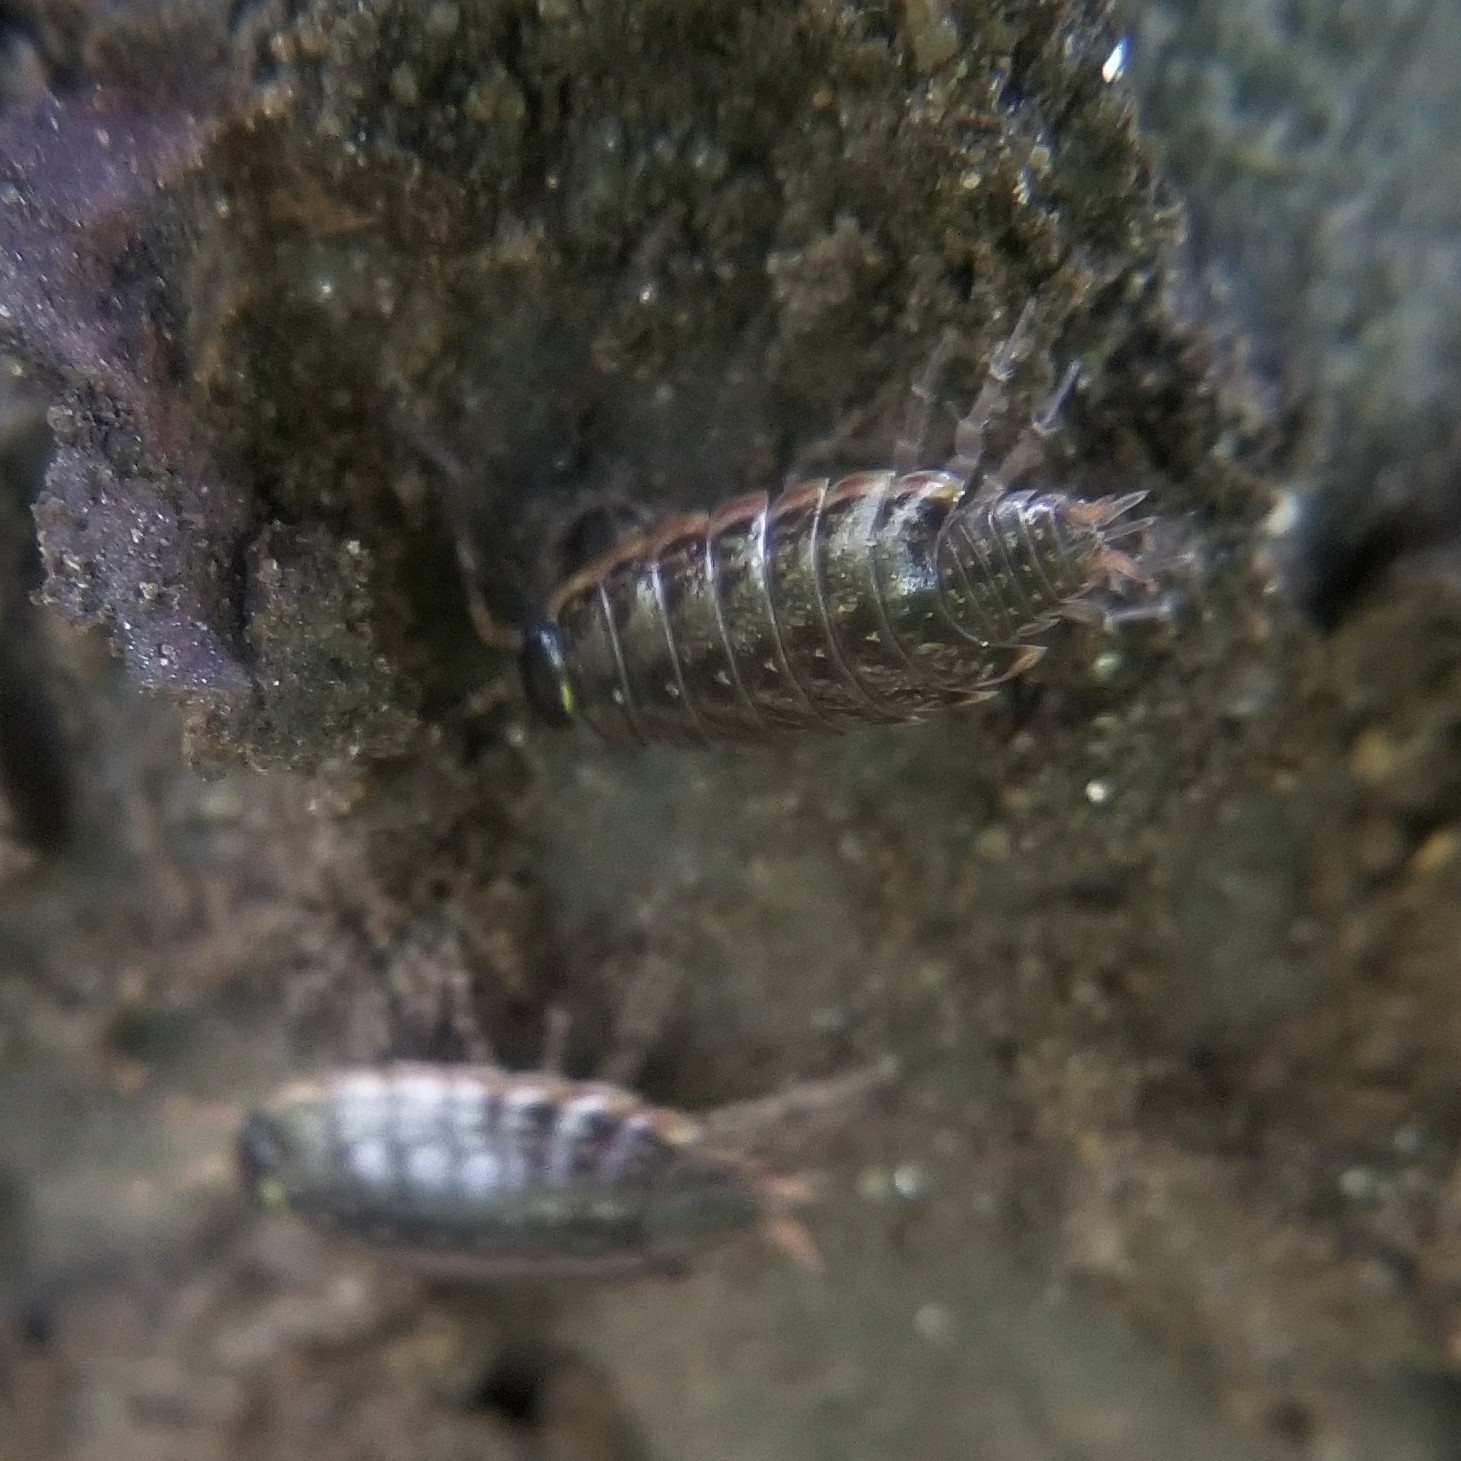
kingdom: Animalia
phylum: Arthropoda
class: Malacostraca
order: Isopoda
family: Philosciidae
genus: Philoscia
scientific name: Philoscia muscorum
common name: Common striped woodlouse
